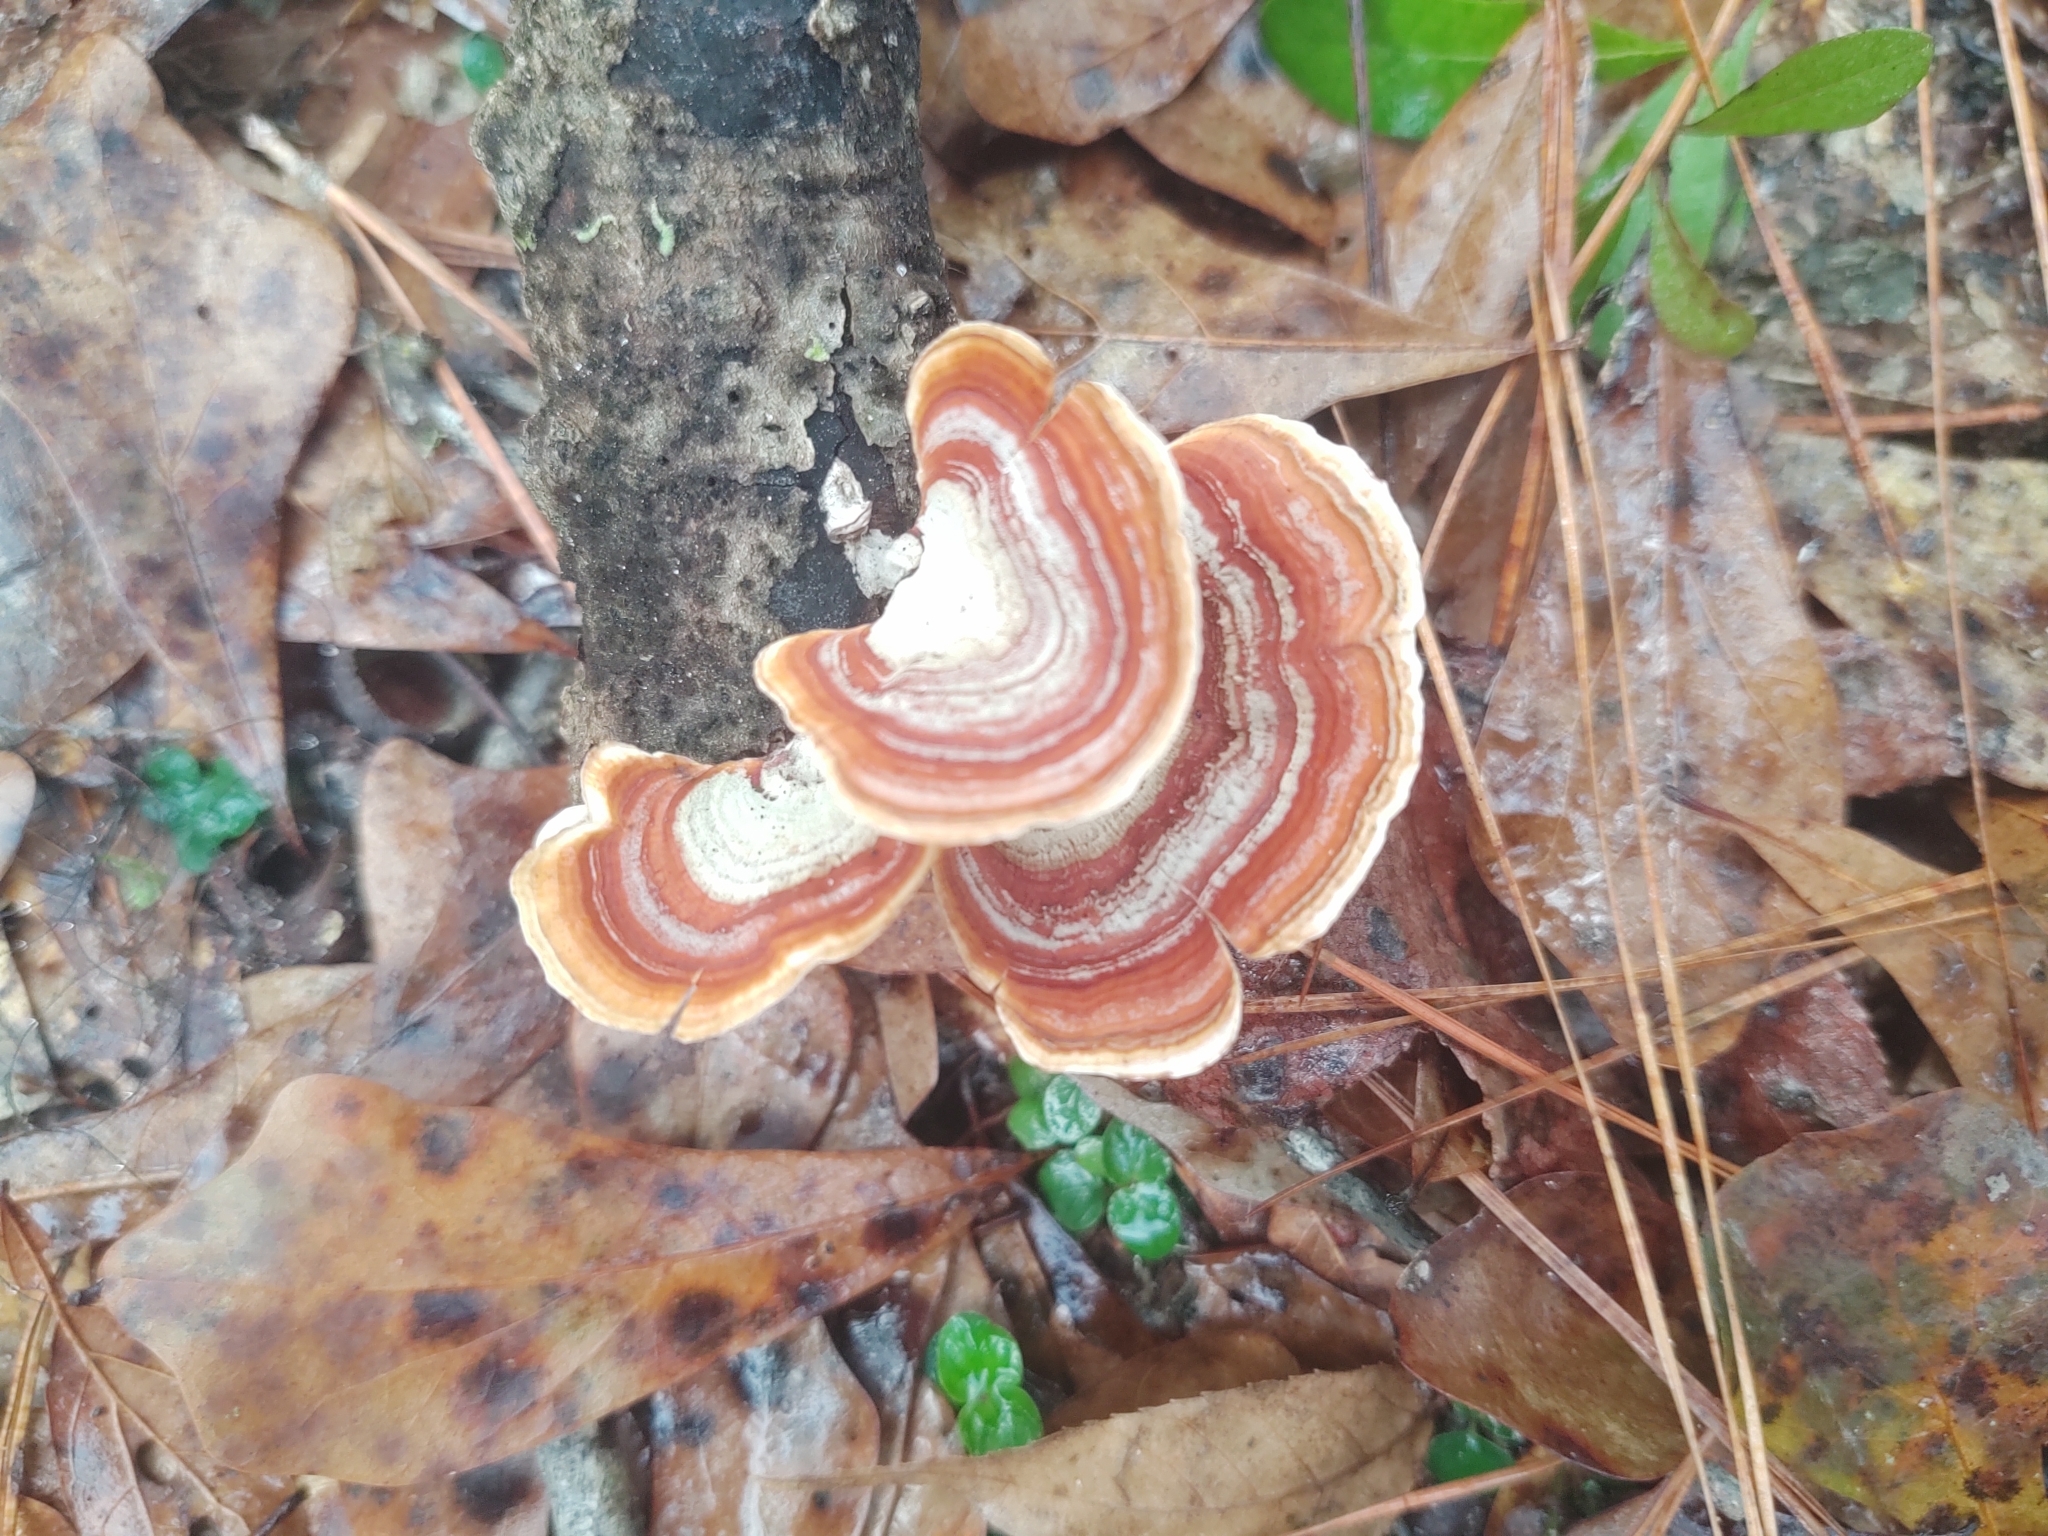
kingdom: Fungi
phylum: Basidiomycota
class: Agaricomycetes
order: Russulales
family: Stereaceae
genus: Stereum
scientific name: Stereum ostrea
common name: False turkeytail
